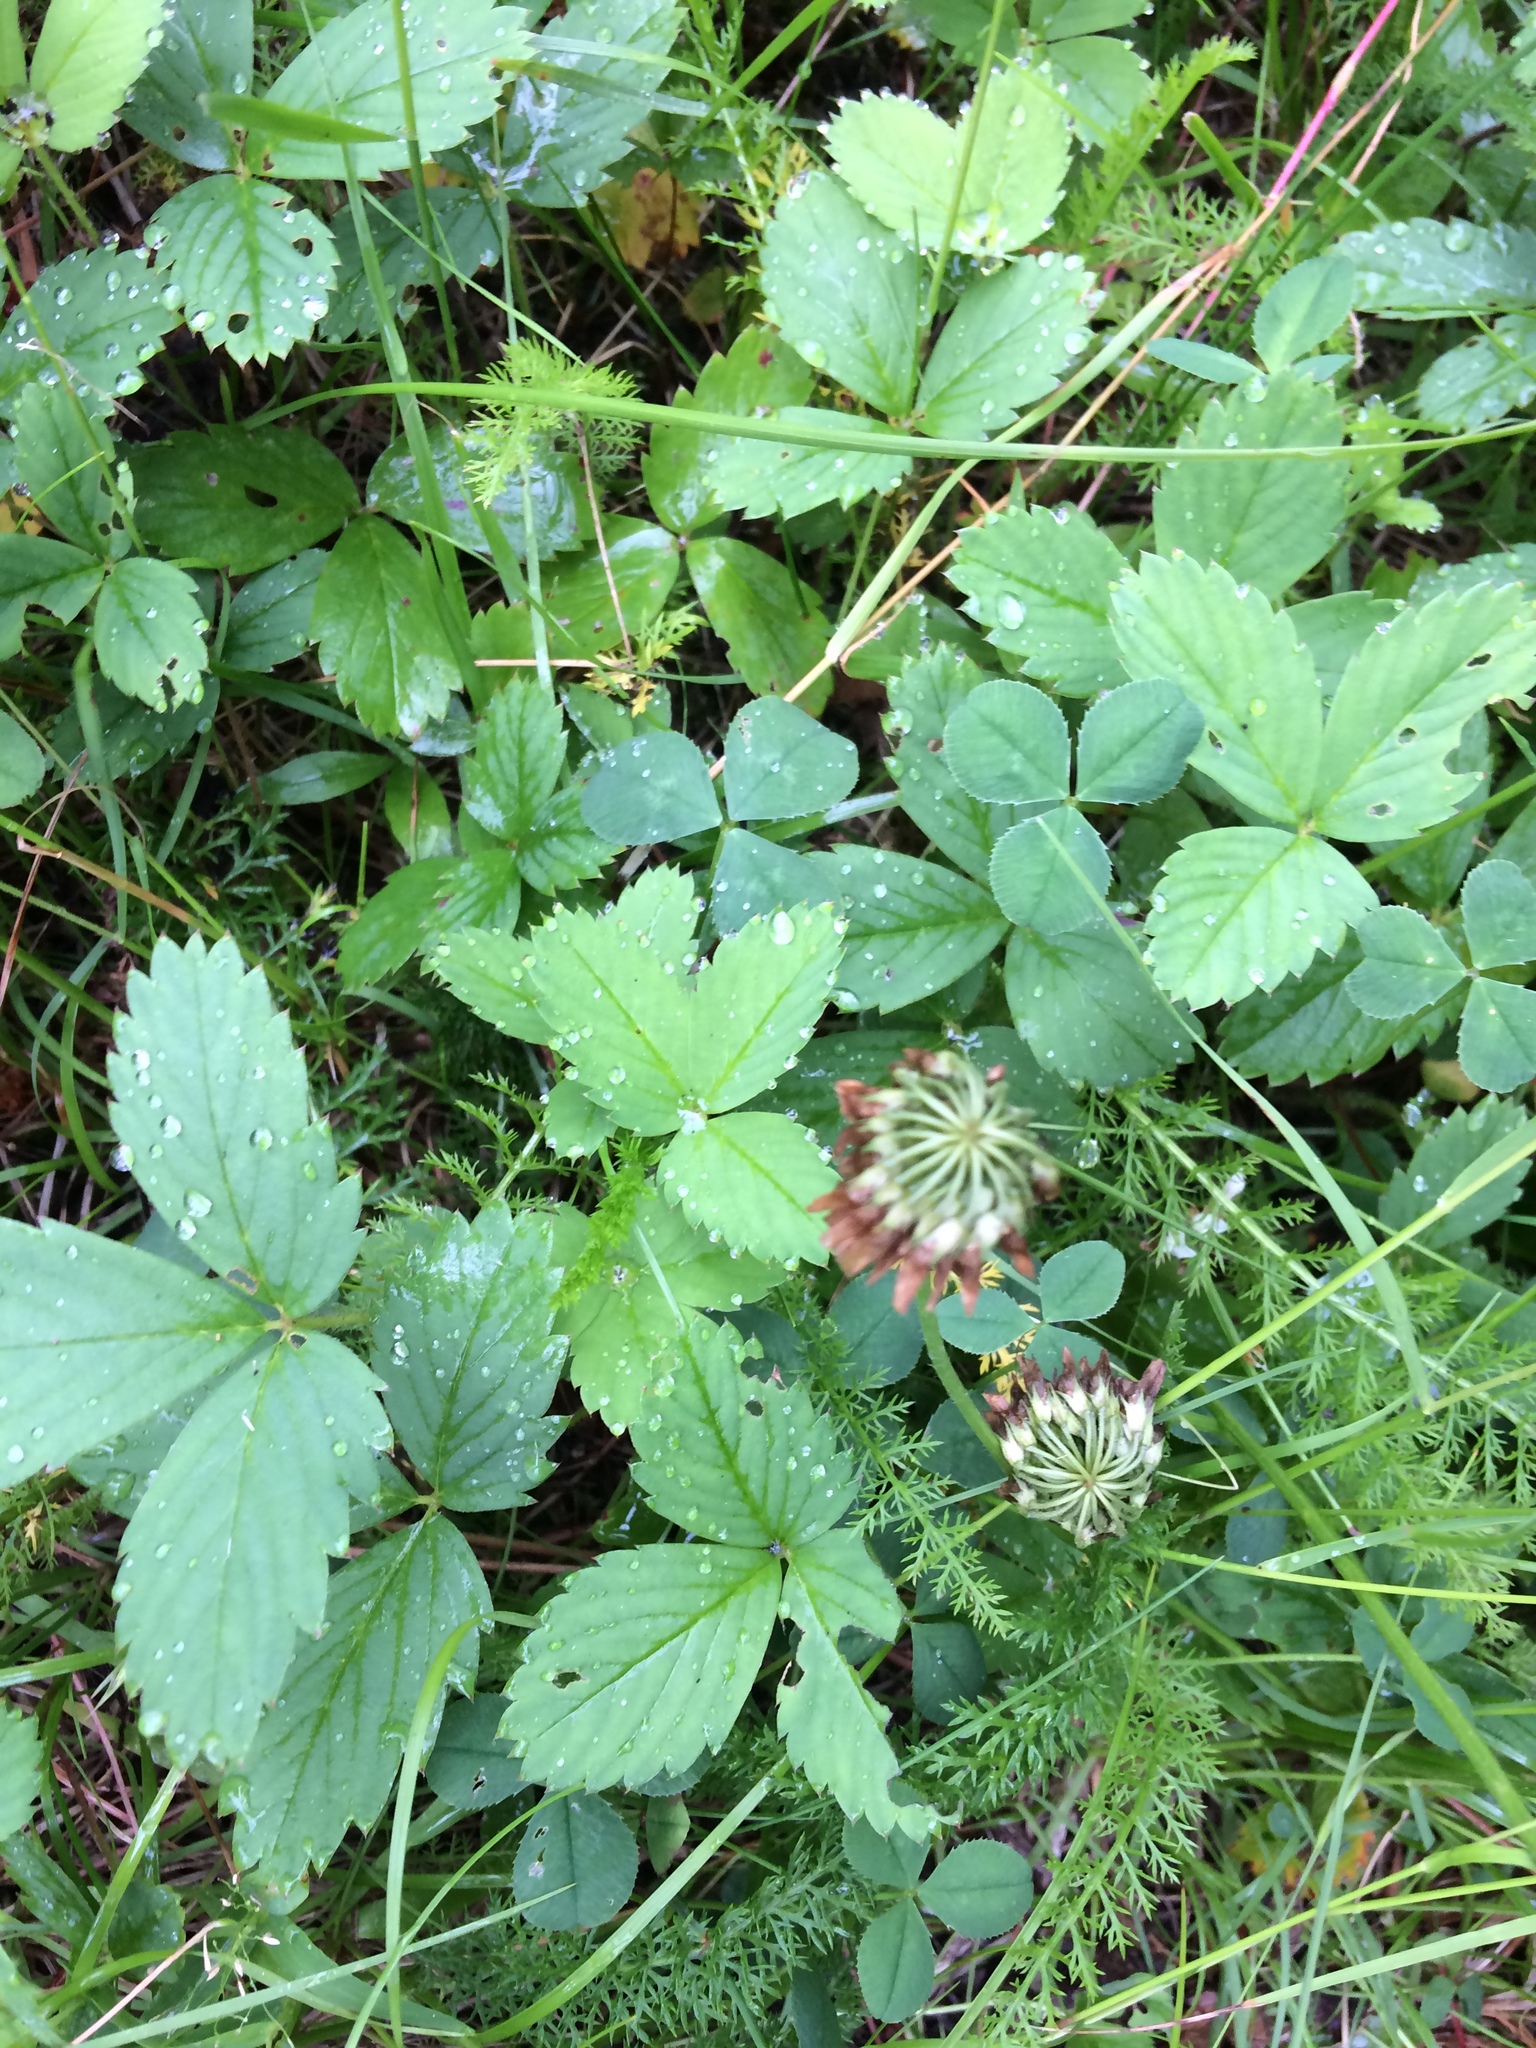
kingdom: Plantae
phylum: Tracheophyta
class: Magnoliopsida
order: Rosales
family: Rosaceae
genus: Fragaria
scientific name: Fragaria virginiana
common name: Thickleaved wild strawberry
